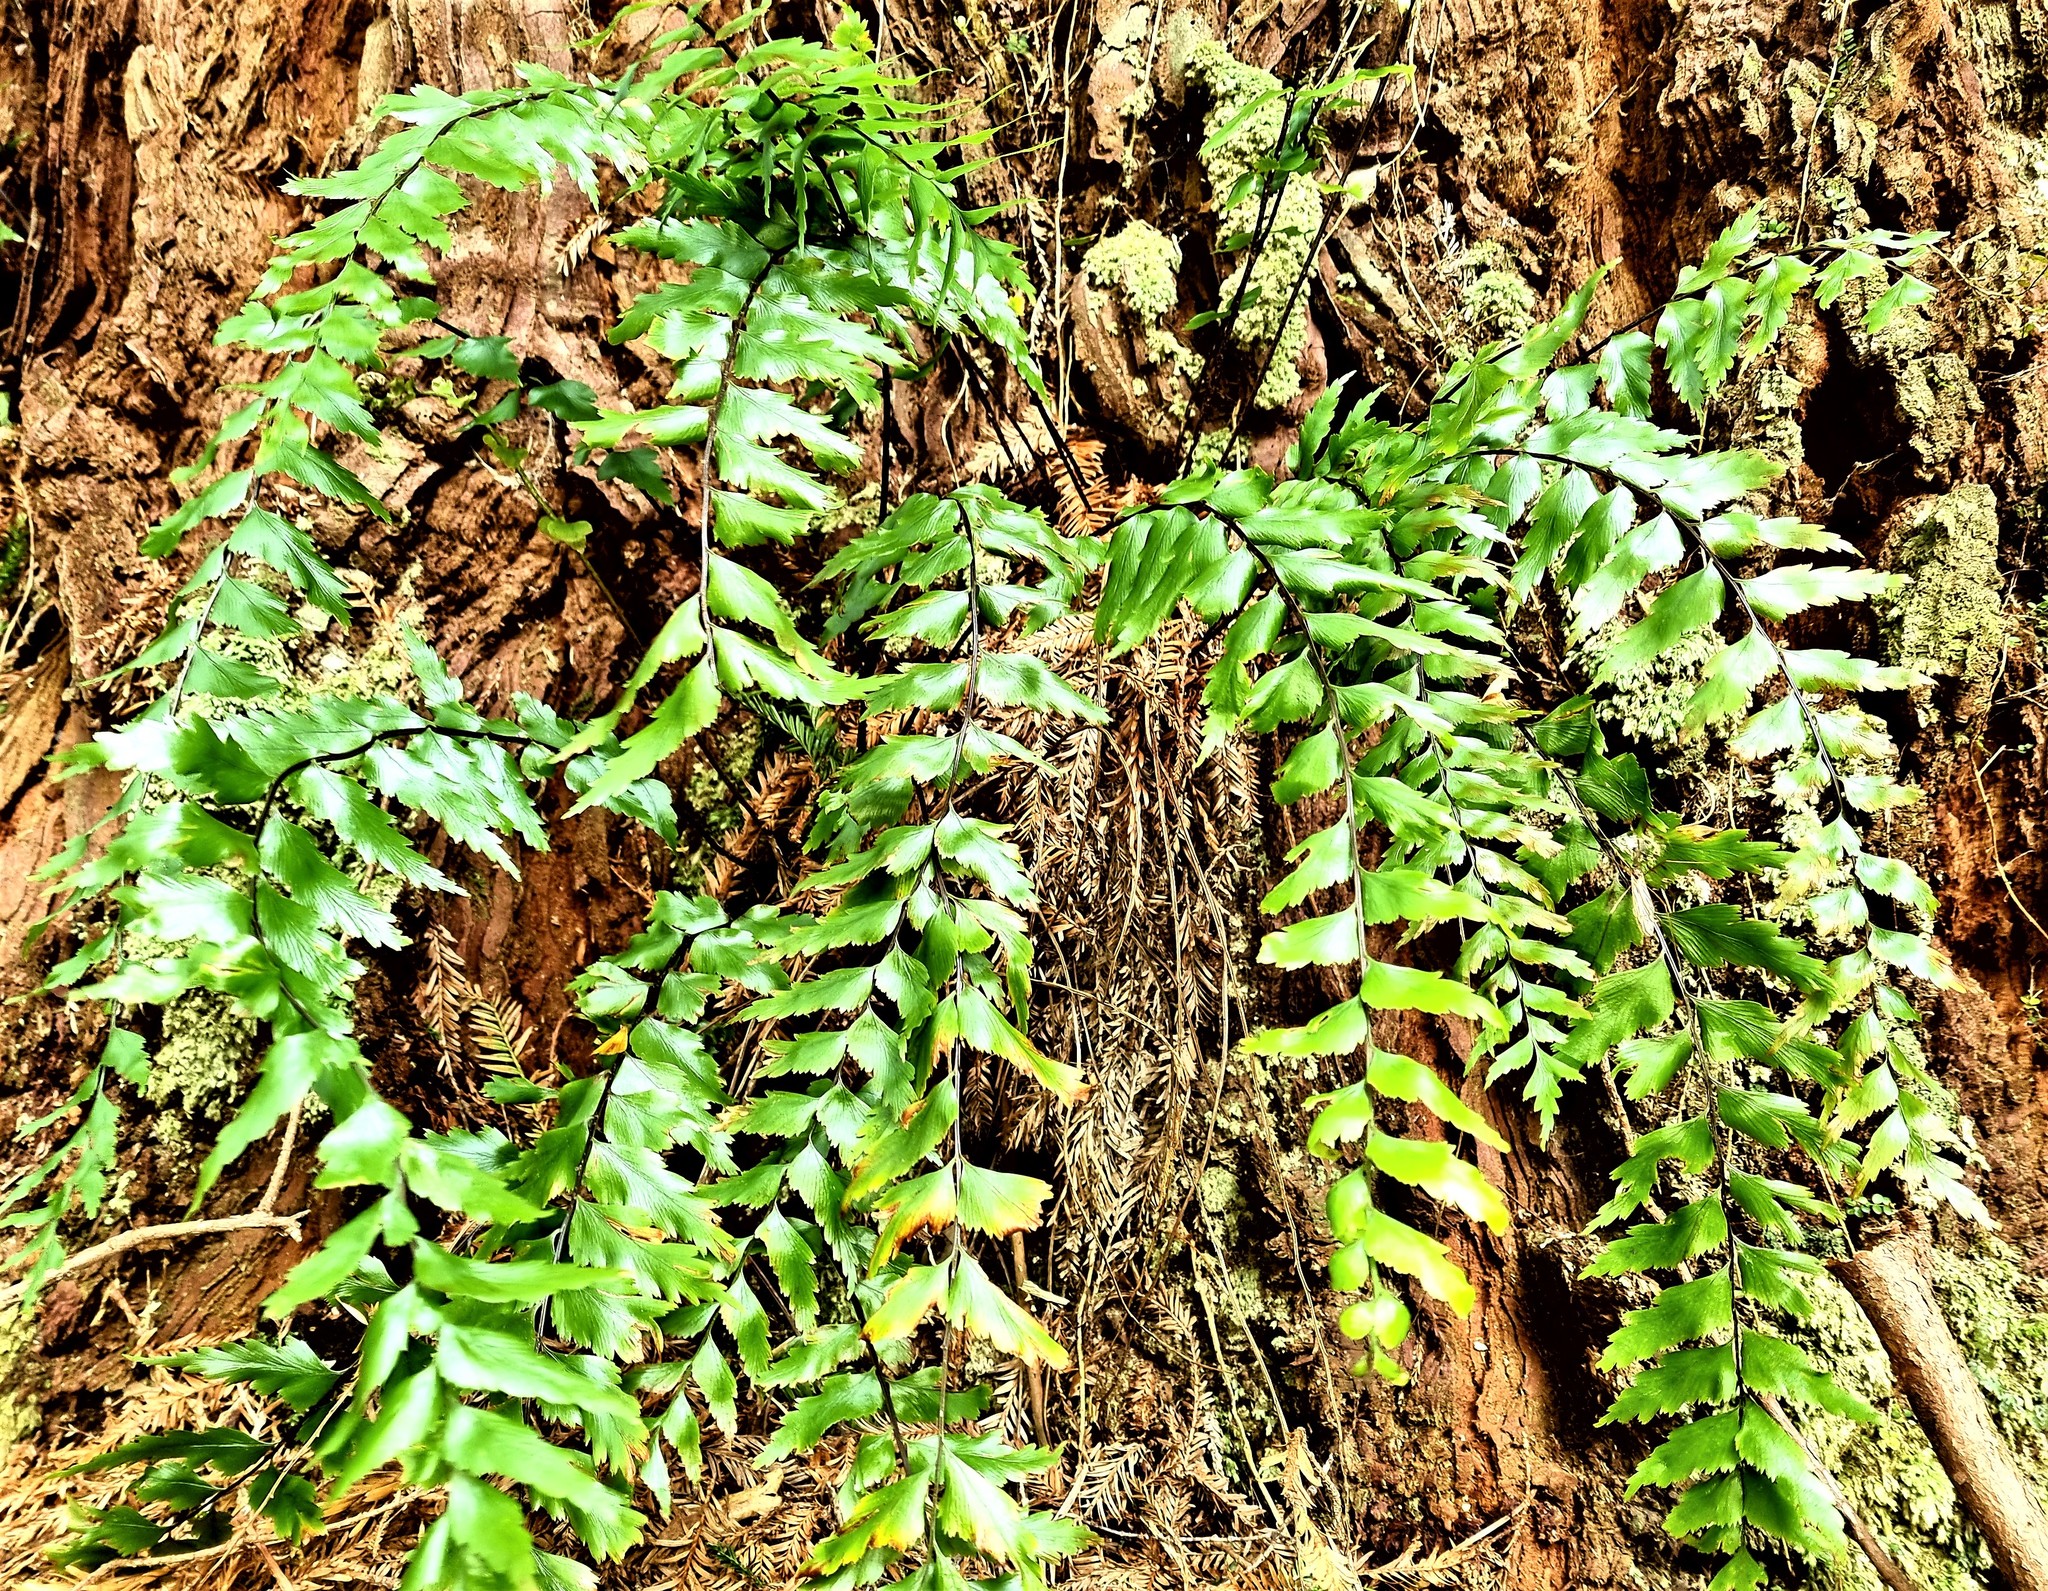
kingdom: Plantae
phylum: Tracheophyta
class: Polypodiopsida
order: Polypodiales
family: Aspleniaceae
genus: Asplenium
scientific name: Asplenium polyodon
